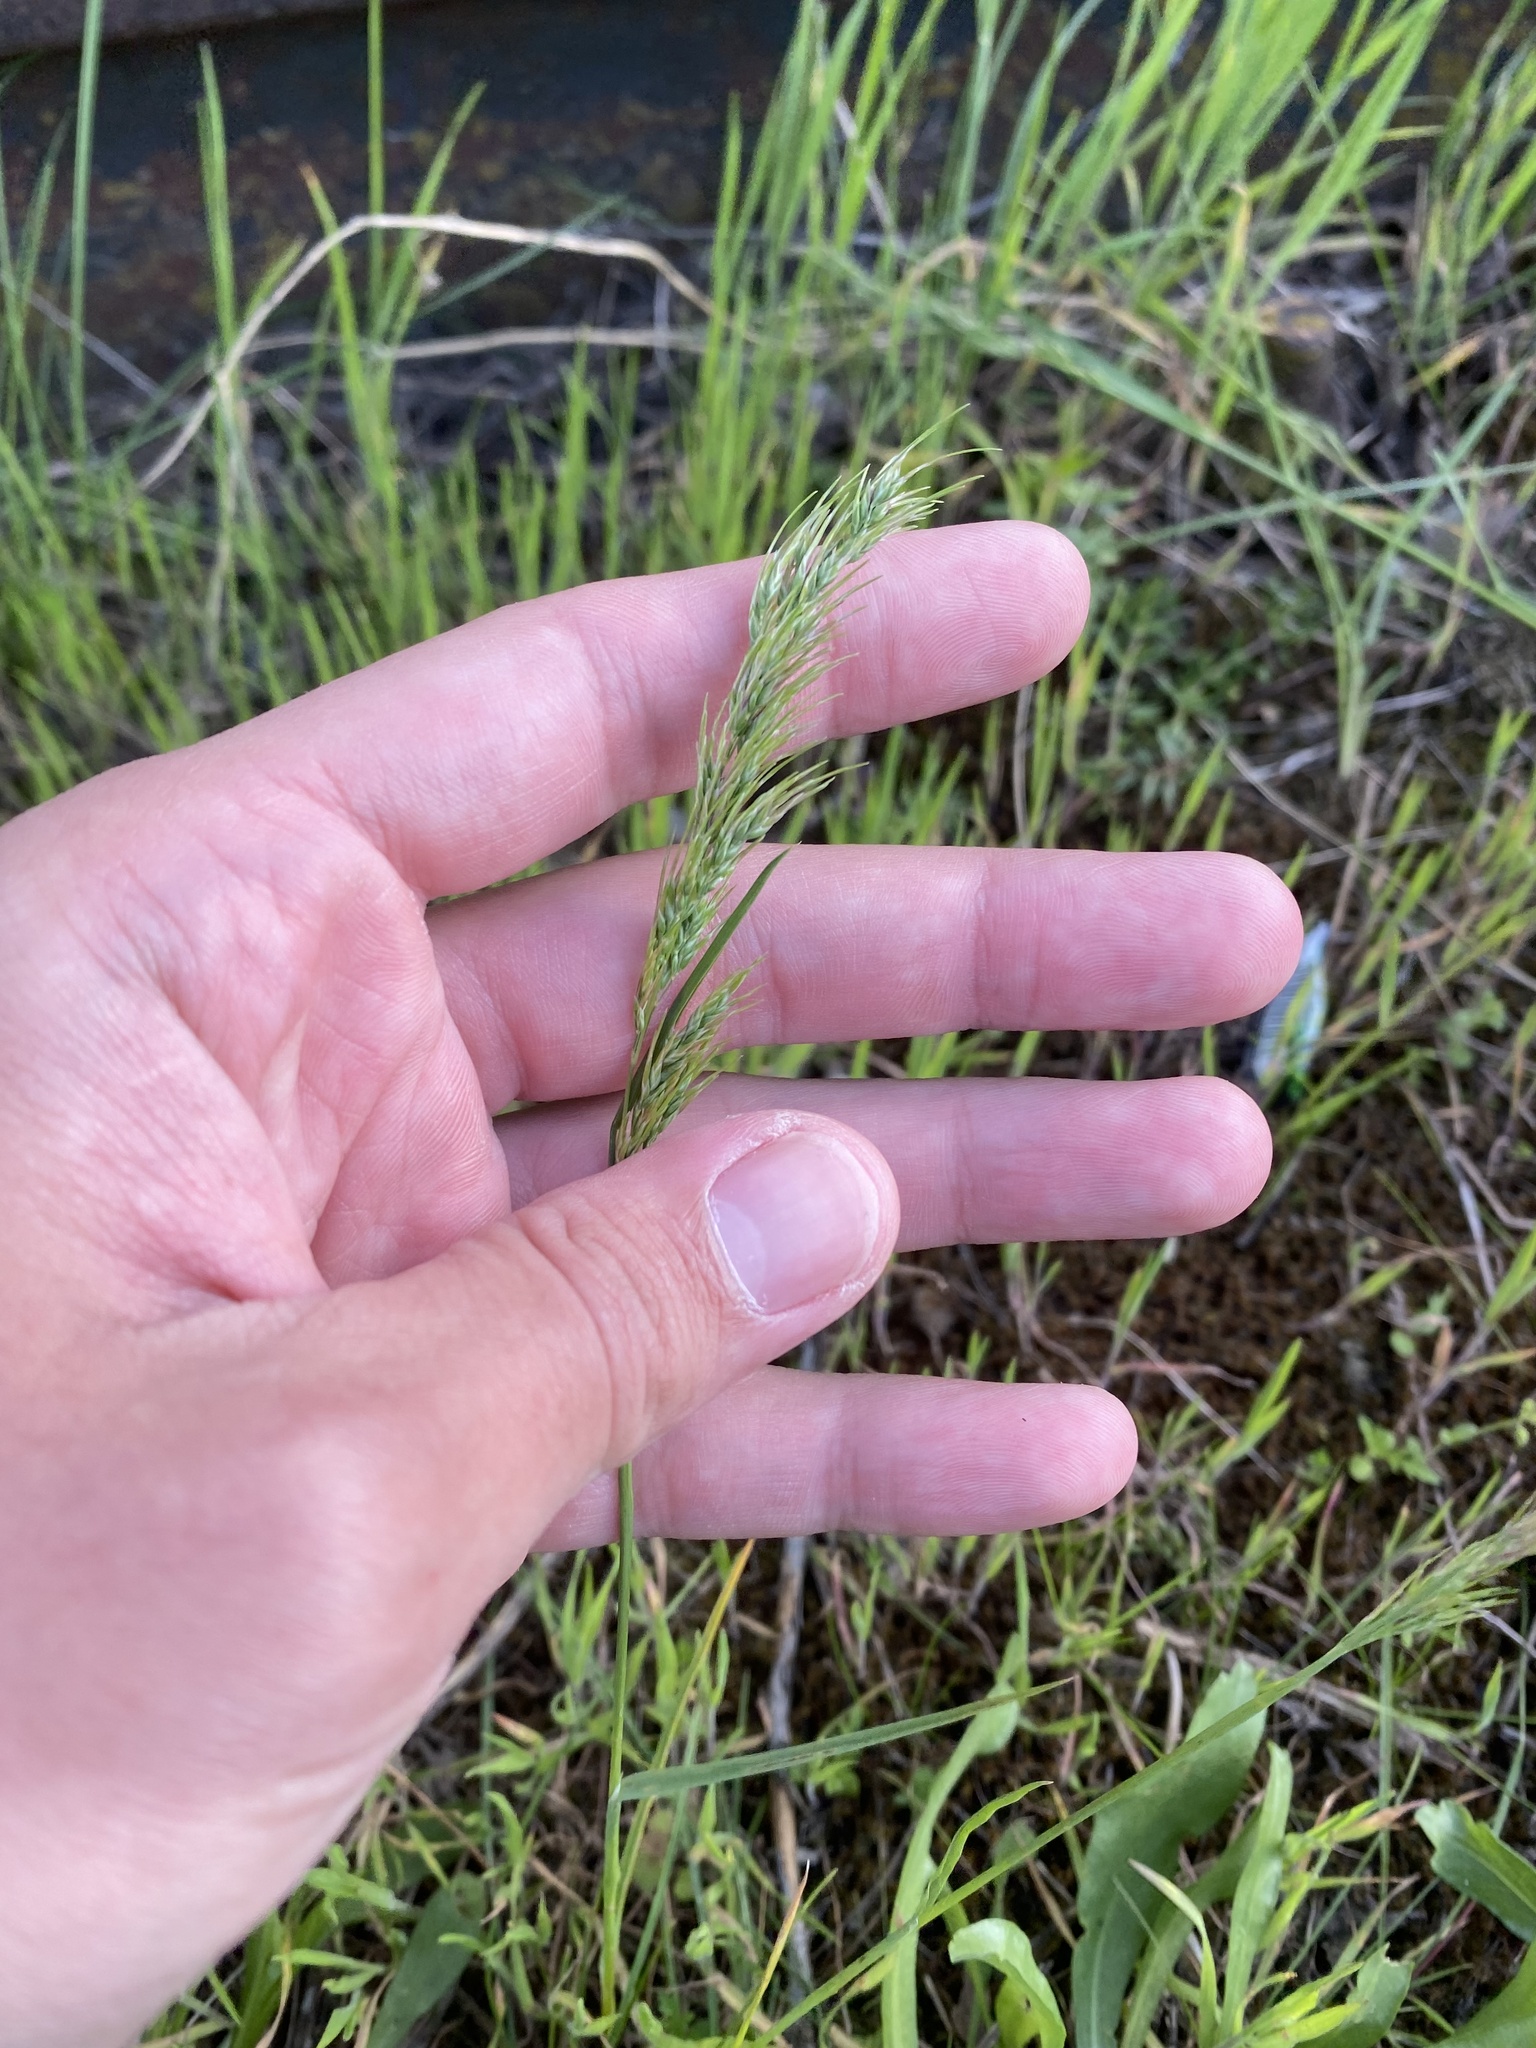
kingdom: Plantae
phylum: Tracheophyta
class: Liliopsida
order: Poales
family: Poaceae
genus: Poa
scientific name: Poa bulbosa
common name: Bulbous bluegrass
